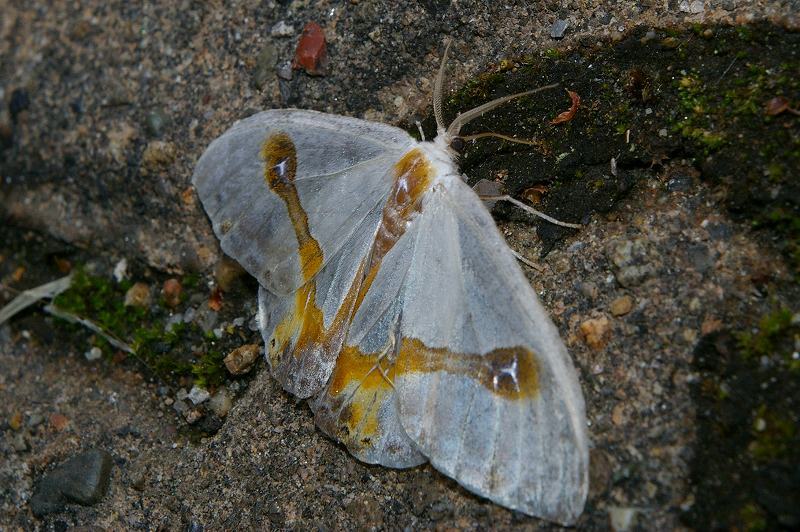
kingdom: Animalia
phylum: Arthropoda
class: Insecta
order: Lepidoptera
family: Drepanidae
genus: Macrocilix
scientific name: Macrocilix mysticata
